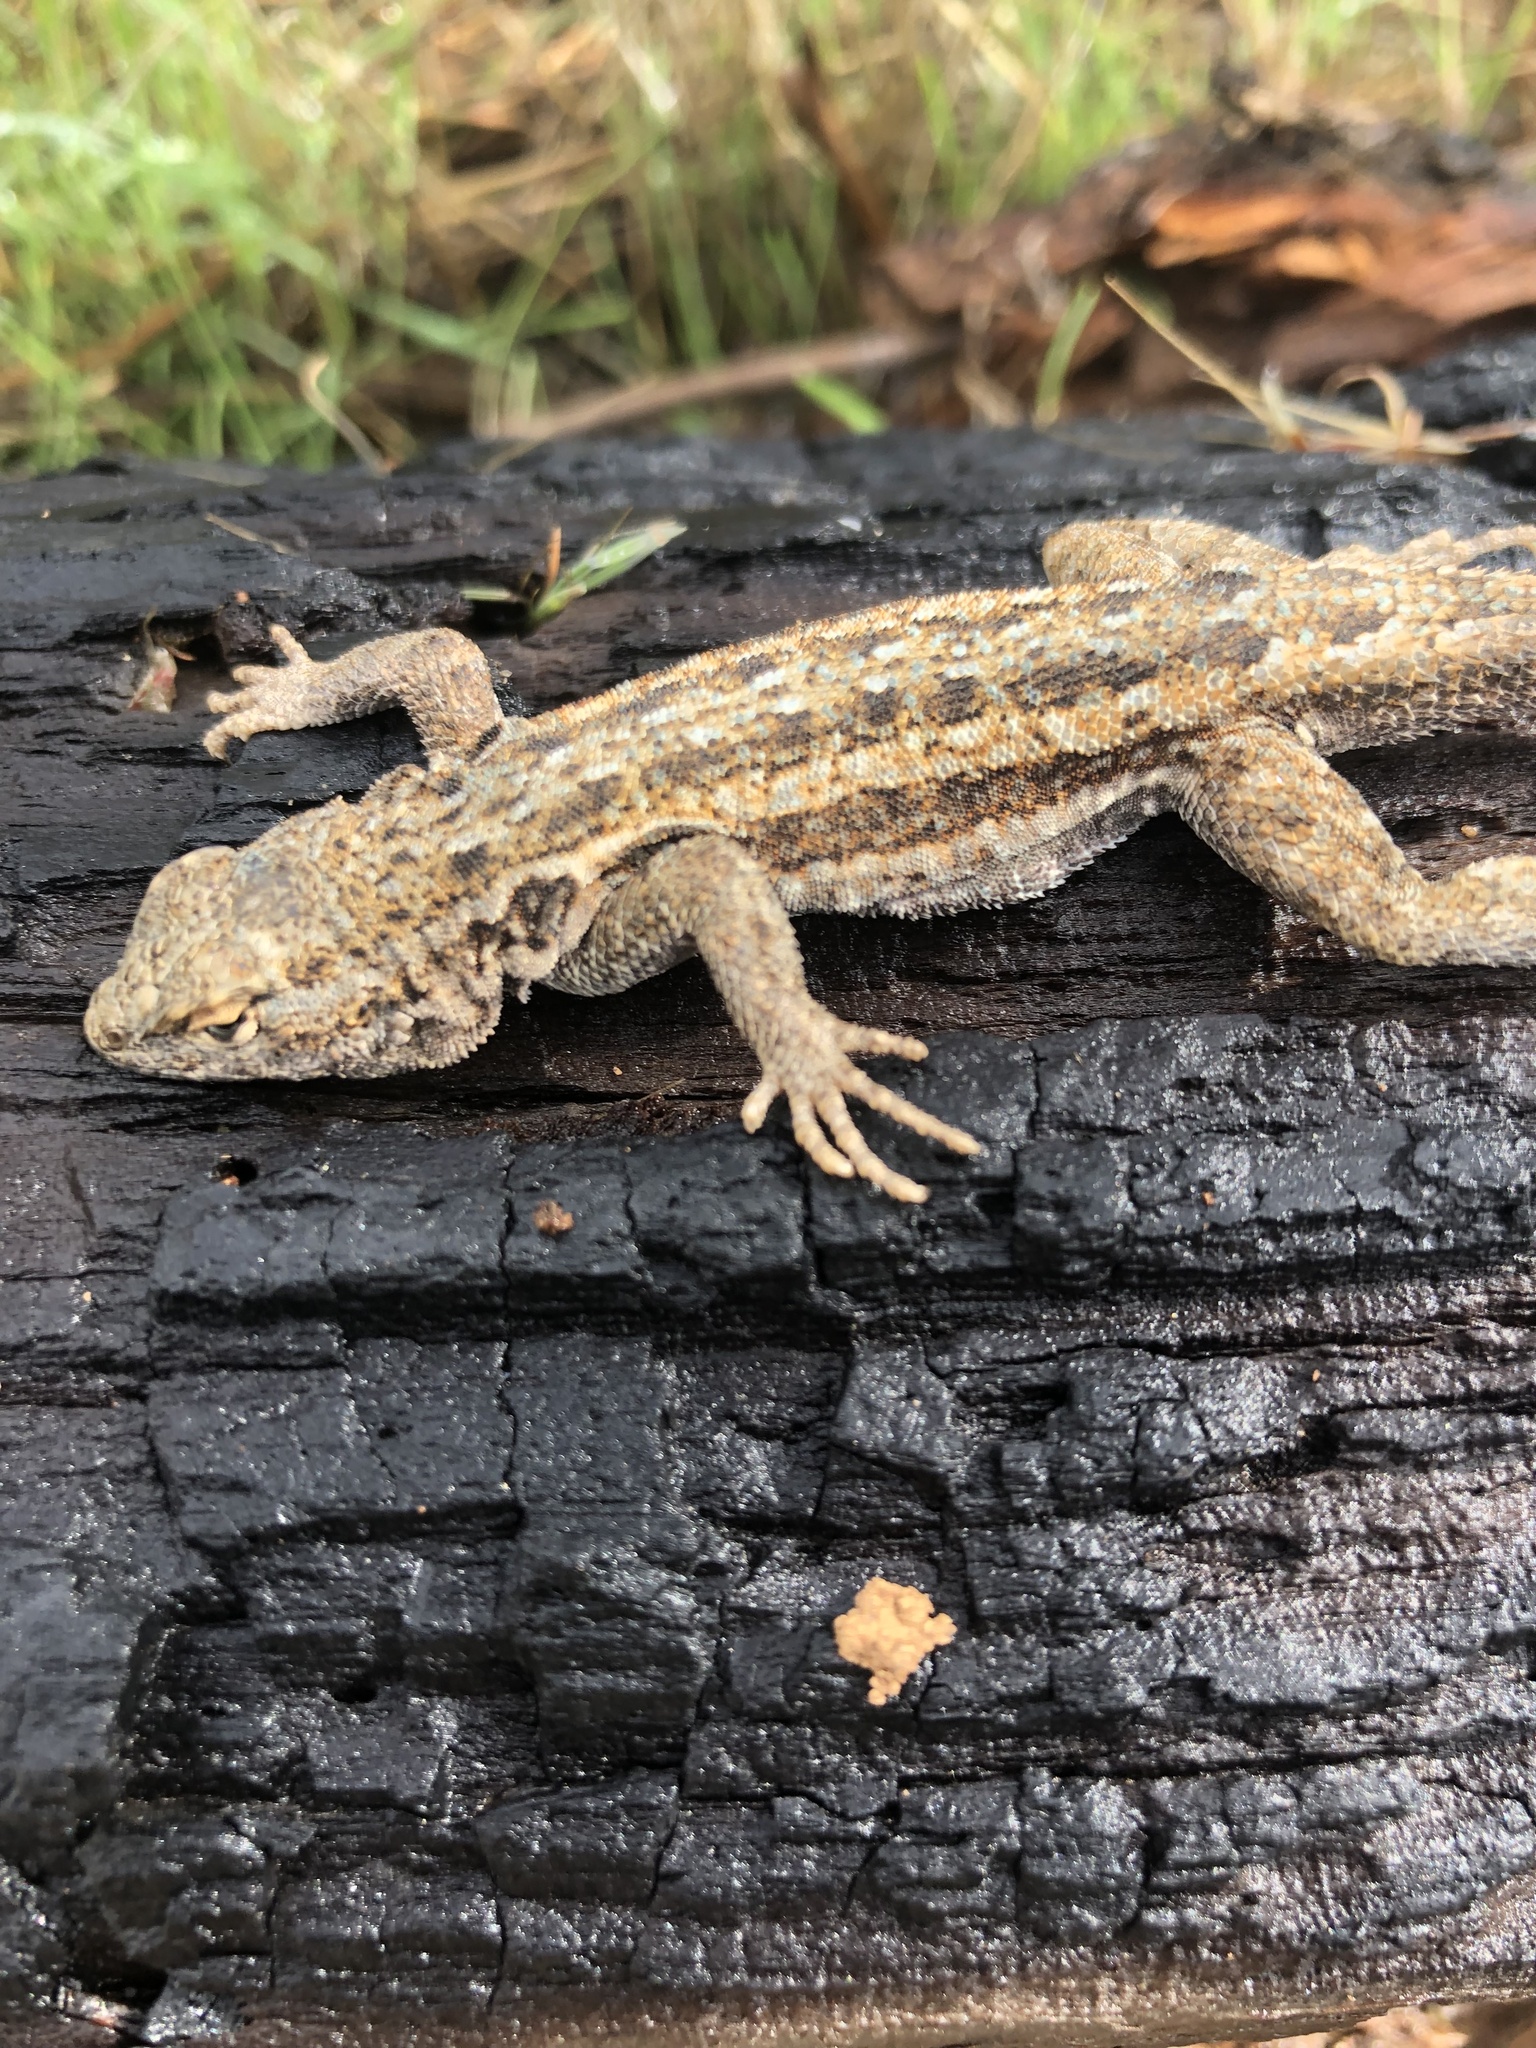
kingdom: Animalia
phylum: Chordata
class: Squamata
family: Phrynosomatidae
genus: Uta
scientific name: Uta stansburiana
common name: Side-blotched lizard
